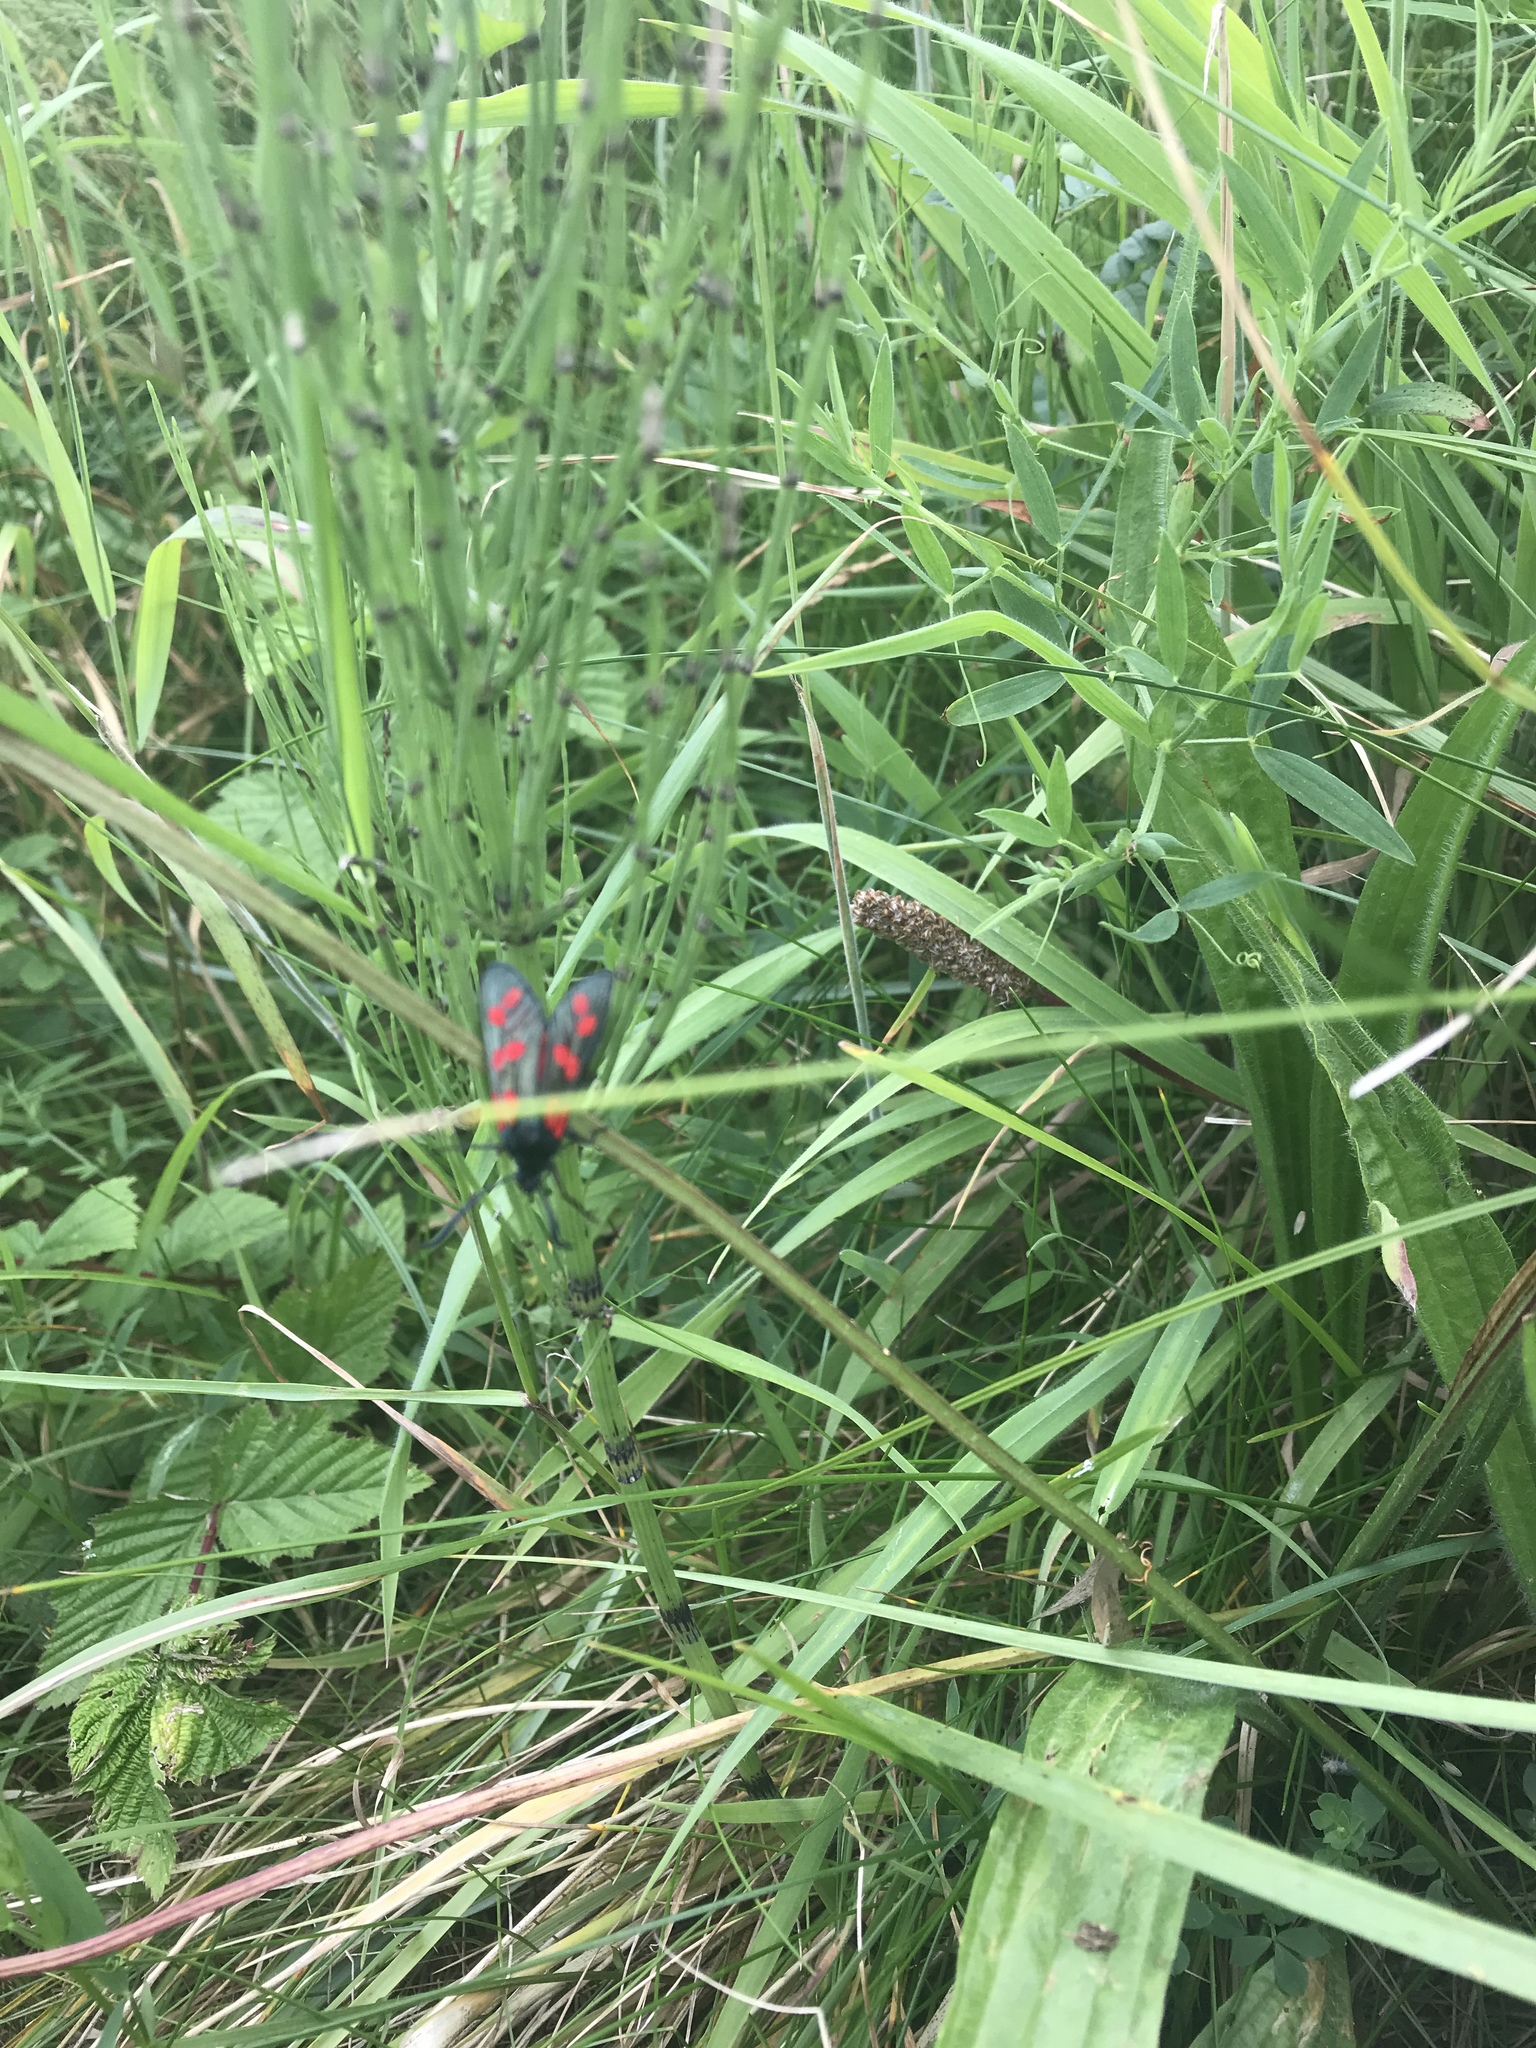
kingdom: Animalia
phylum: Arthropoda
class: Insecta
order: Lepidoptera
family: Zygaenidae
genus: Zygaena
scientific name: Zygaena filipendulae
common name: Six-spot burnet
